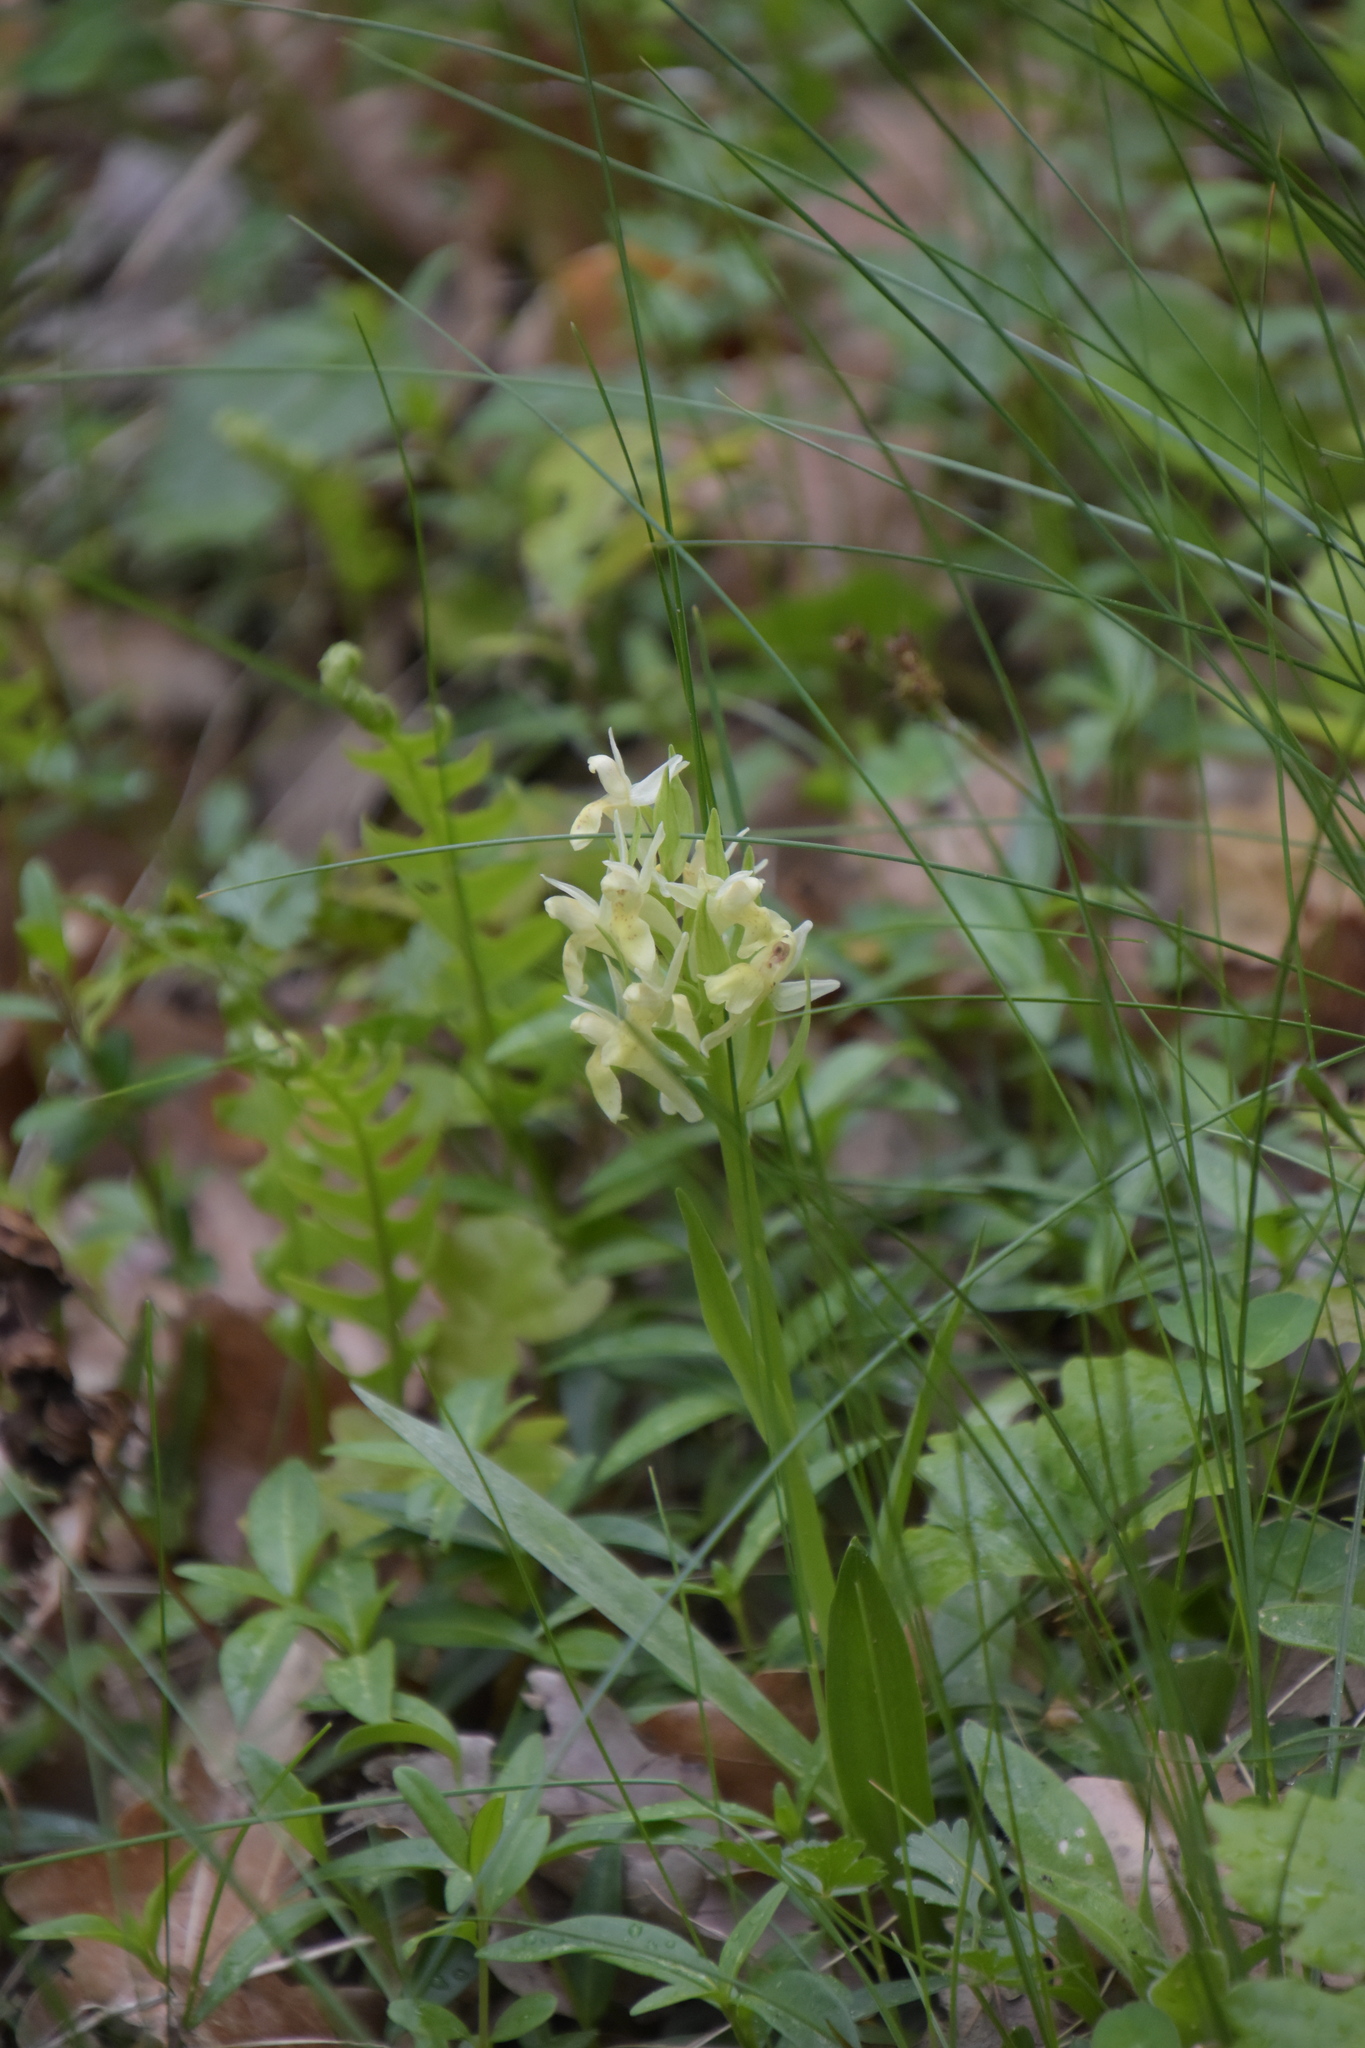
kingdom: Plantae
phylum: Tracheophyta
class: Liliopsida
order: Asparagales
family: Orchidaceae
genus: Dactylorhiza
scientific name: Dactylorhiza sambucina
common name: Elder-flowered orchid
